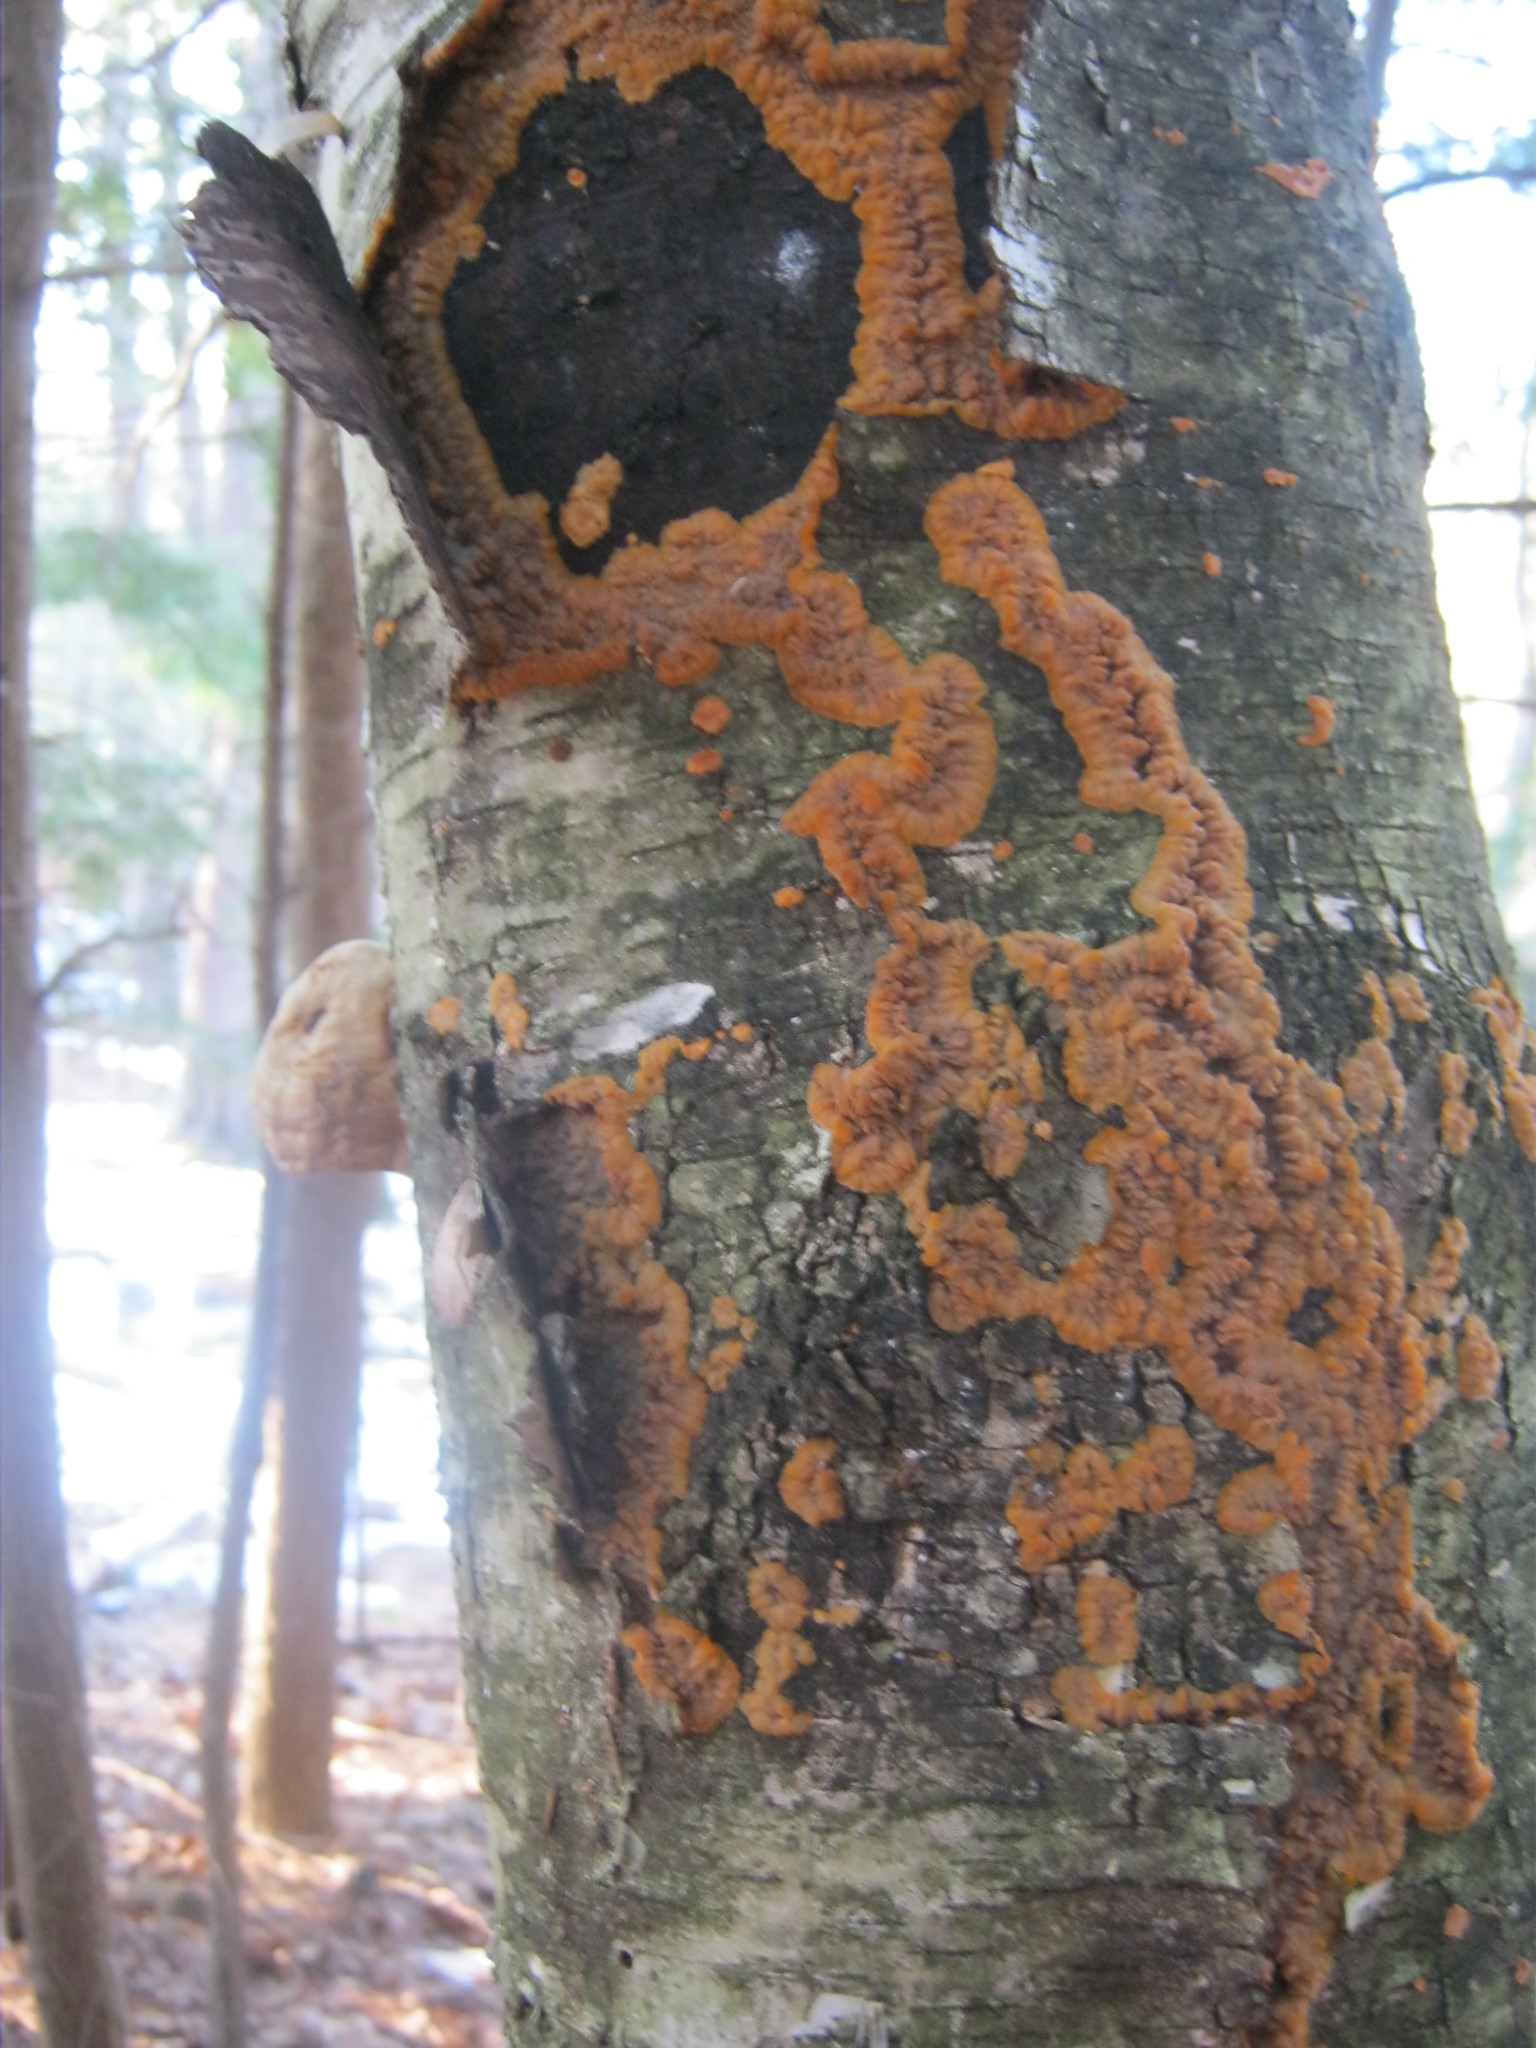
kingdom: Fungi
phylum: Basidiomycota
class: Agaricomycetes
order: Polyporales
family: Meruliaceae
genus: Phlebia
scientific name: Phlebia radiata
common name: Wrinkled crust
